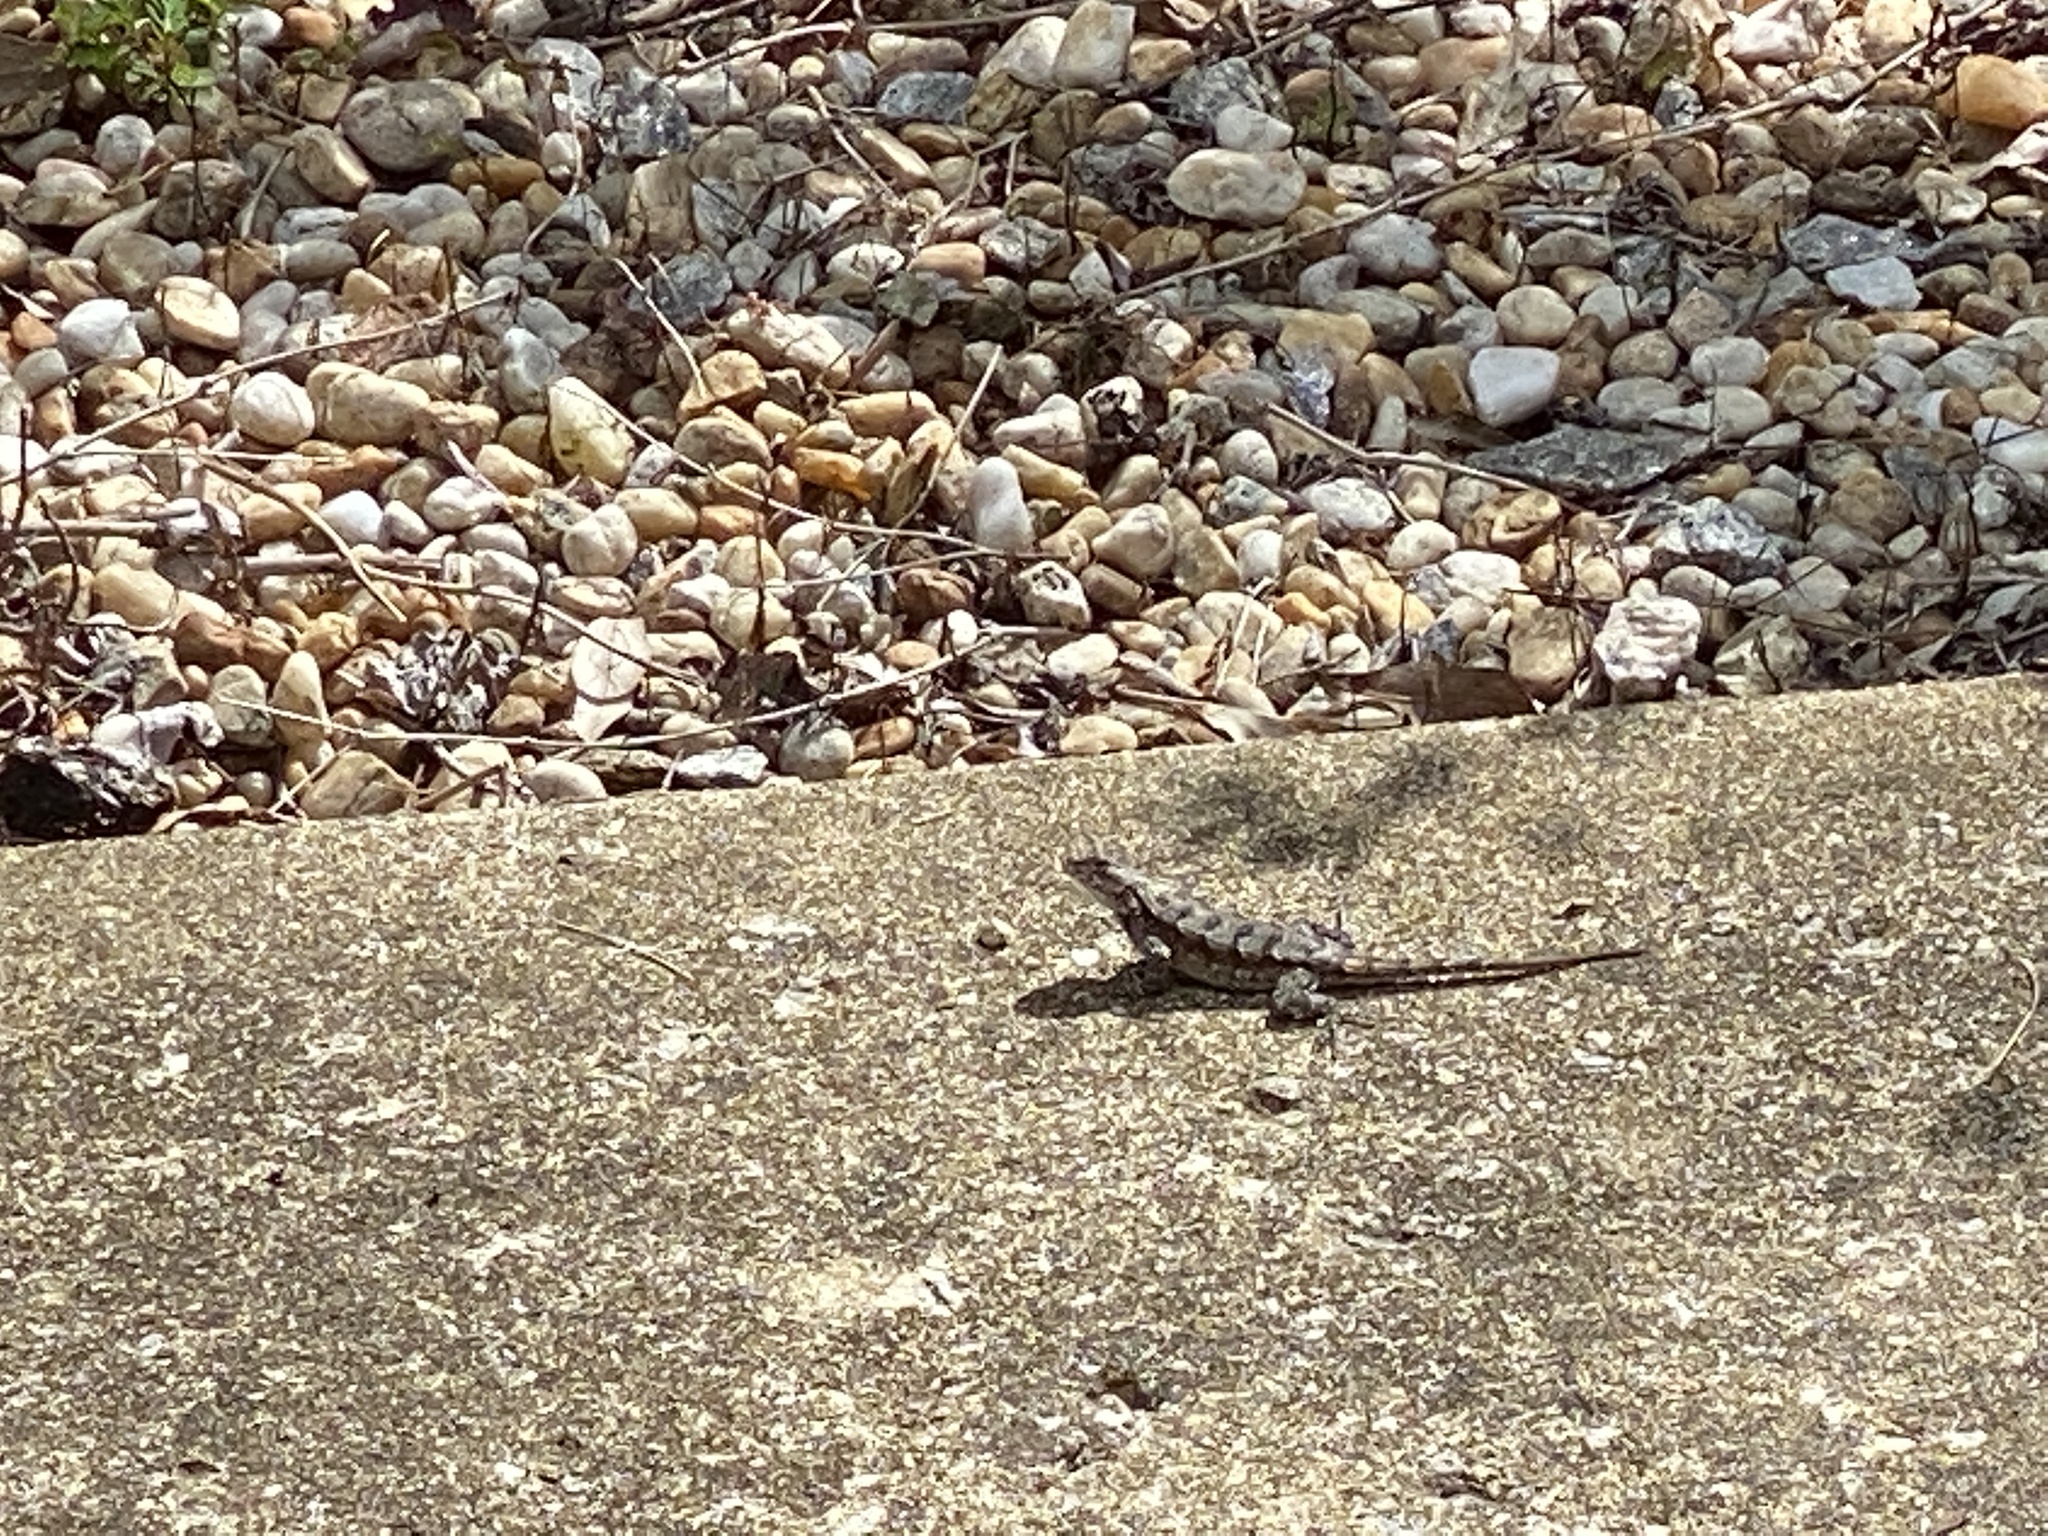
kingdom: Animalia
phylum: Chordata
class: Squamata
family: Phrynosomatidae
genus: Sceloporus
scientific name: Sceloporus undulatus
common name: Eastern fence lizard
